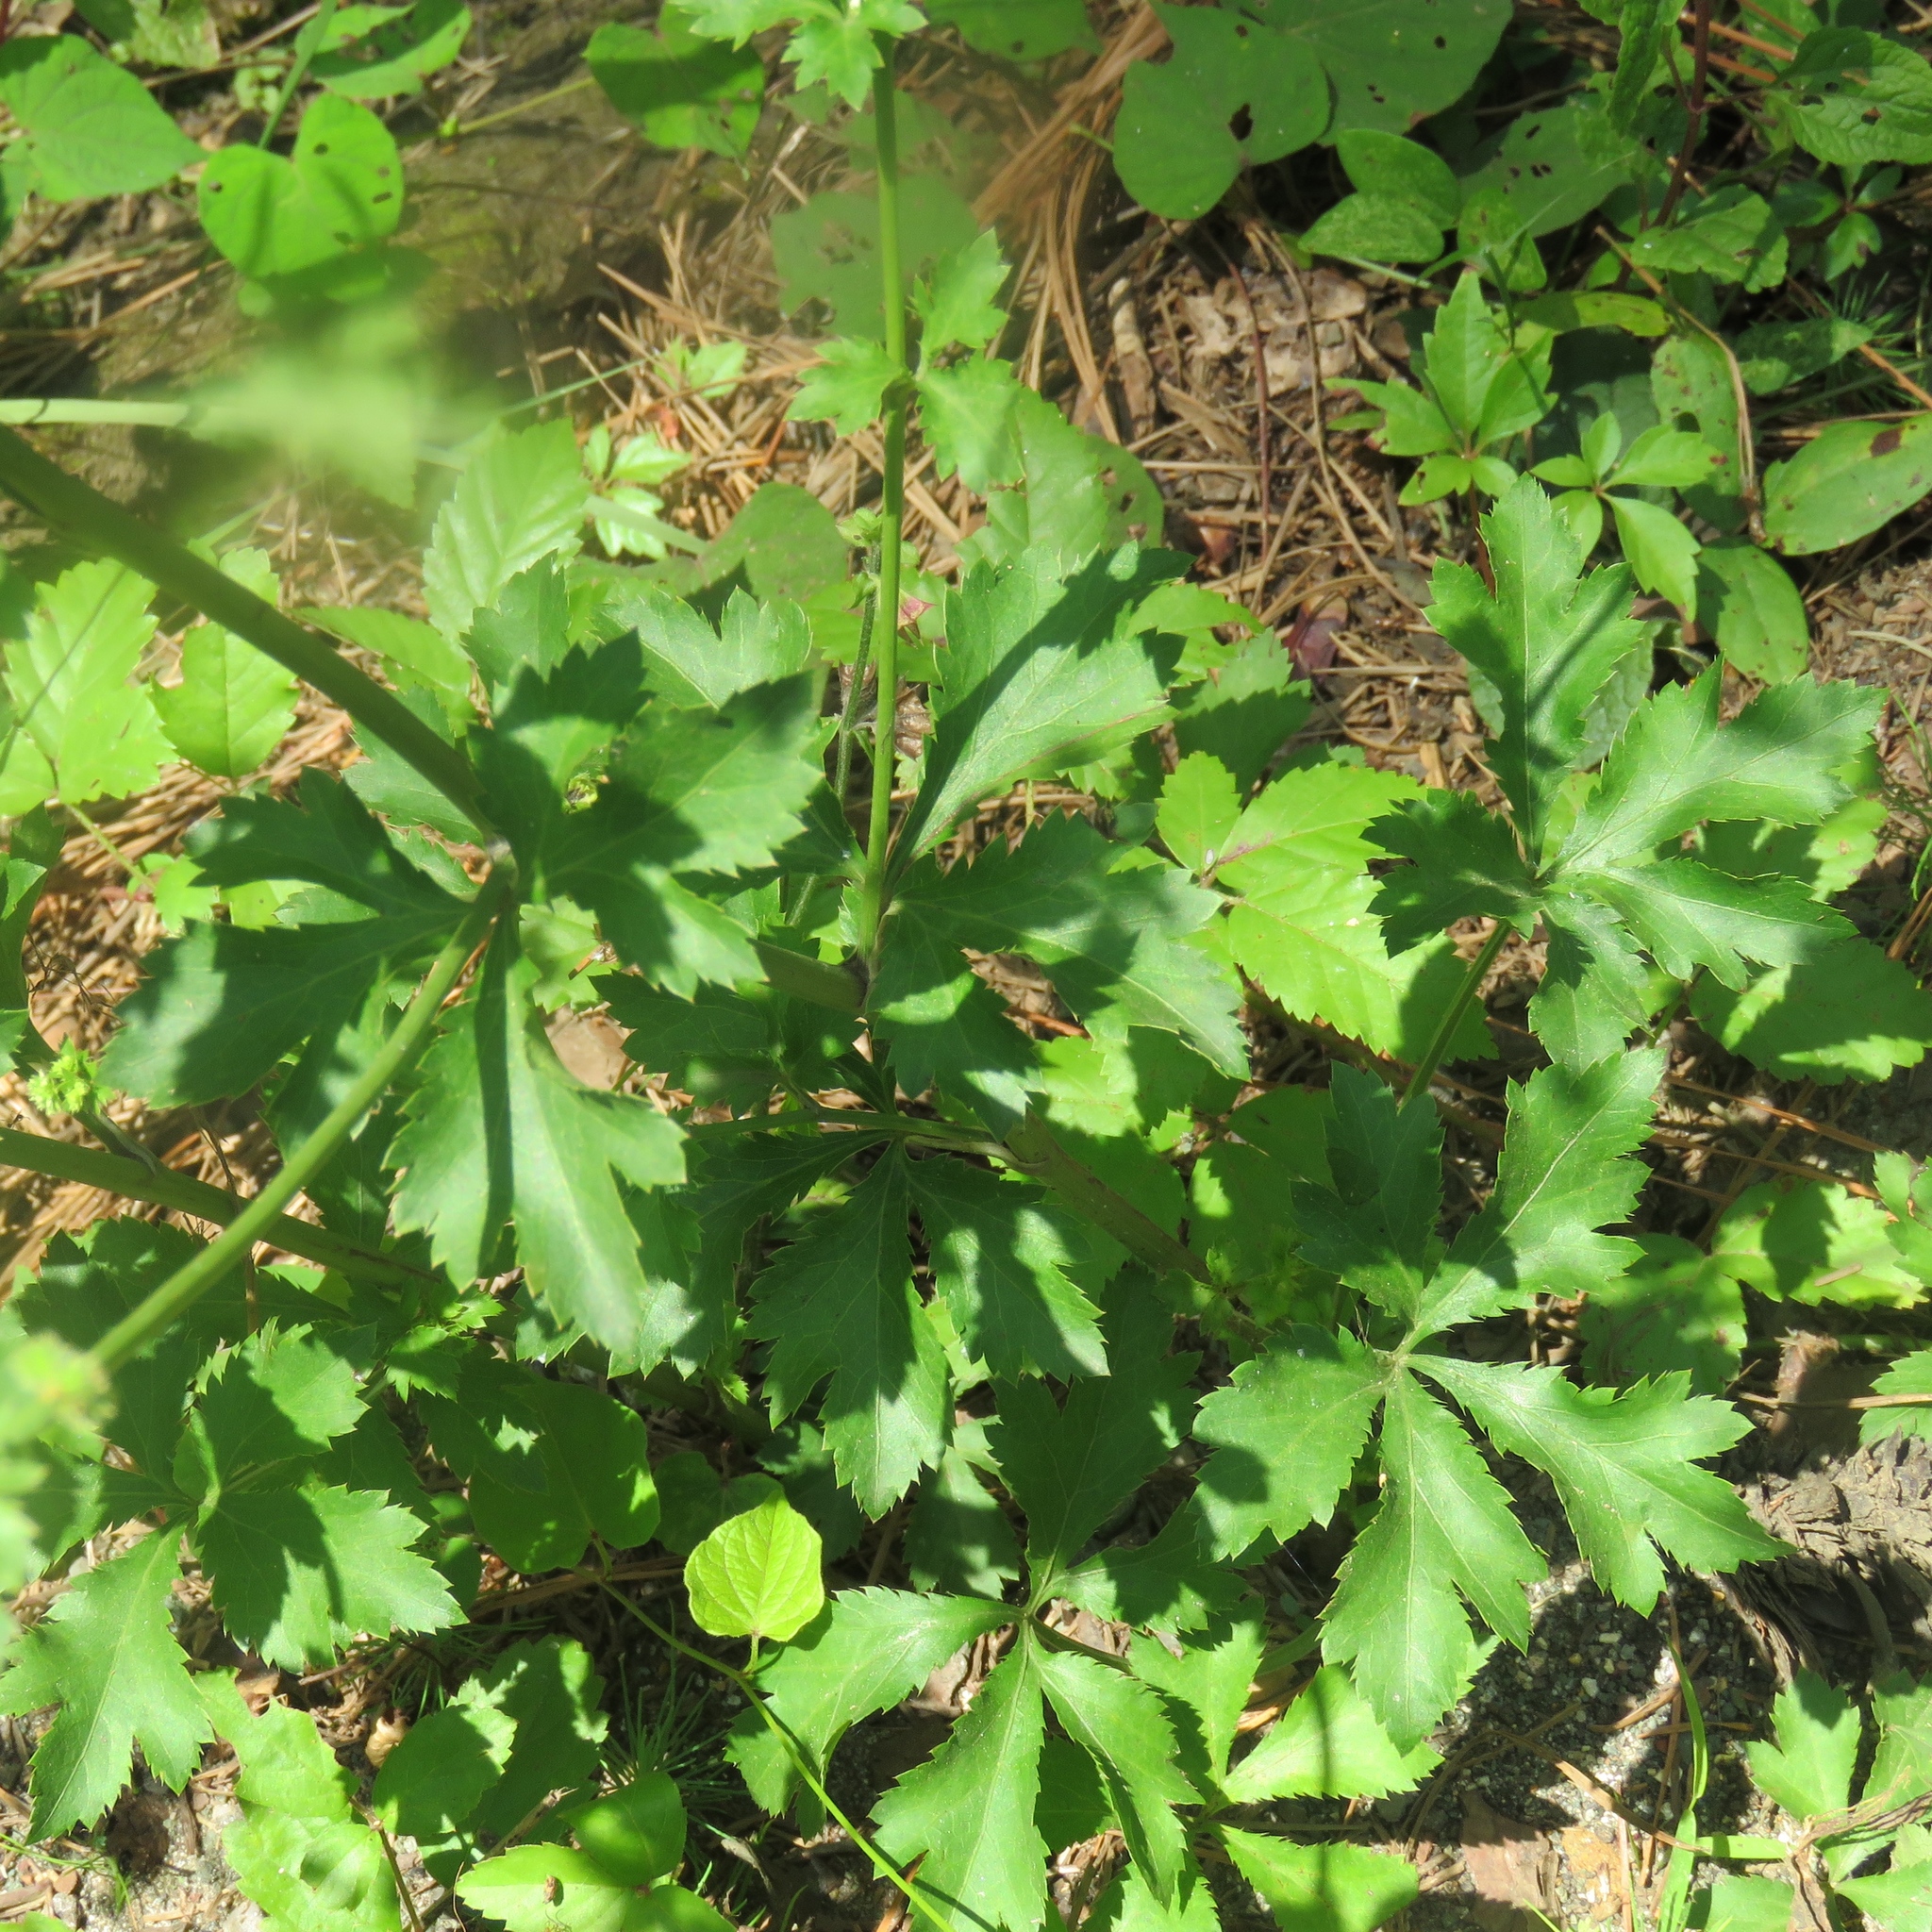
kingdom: Plantae
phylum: Tracheophyta
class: Magnoliopsida
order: Apiales
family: Apiaceae
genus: Sanicula
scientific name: Sanicula canadensis
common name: Canada sanicle
